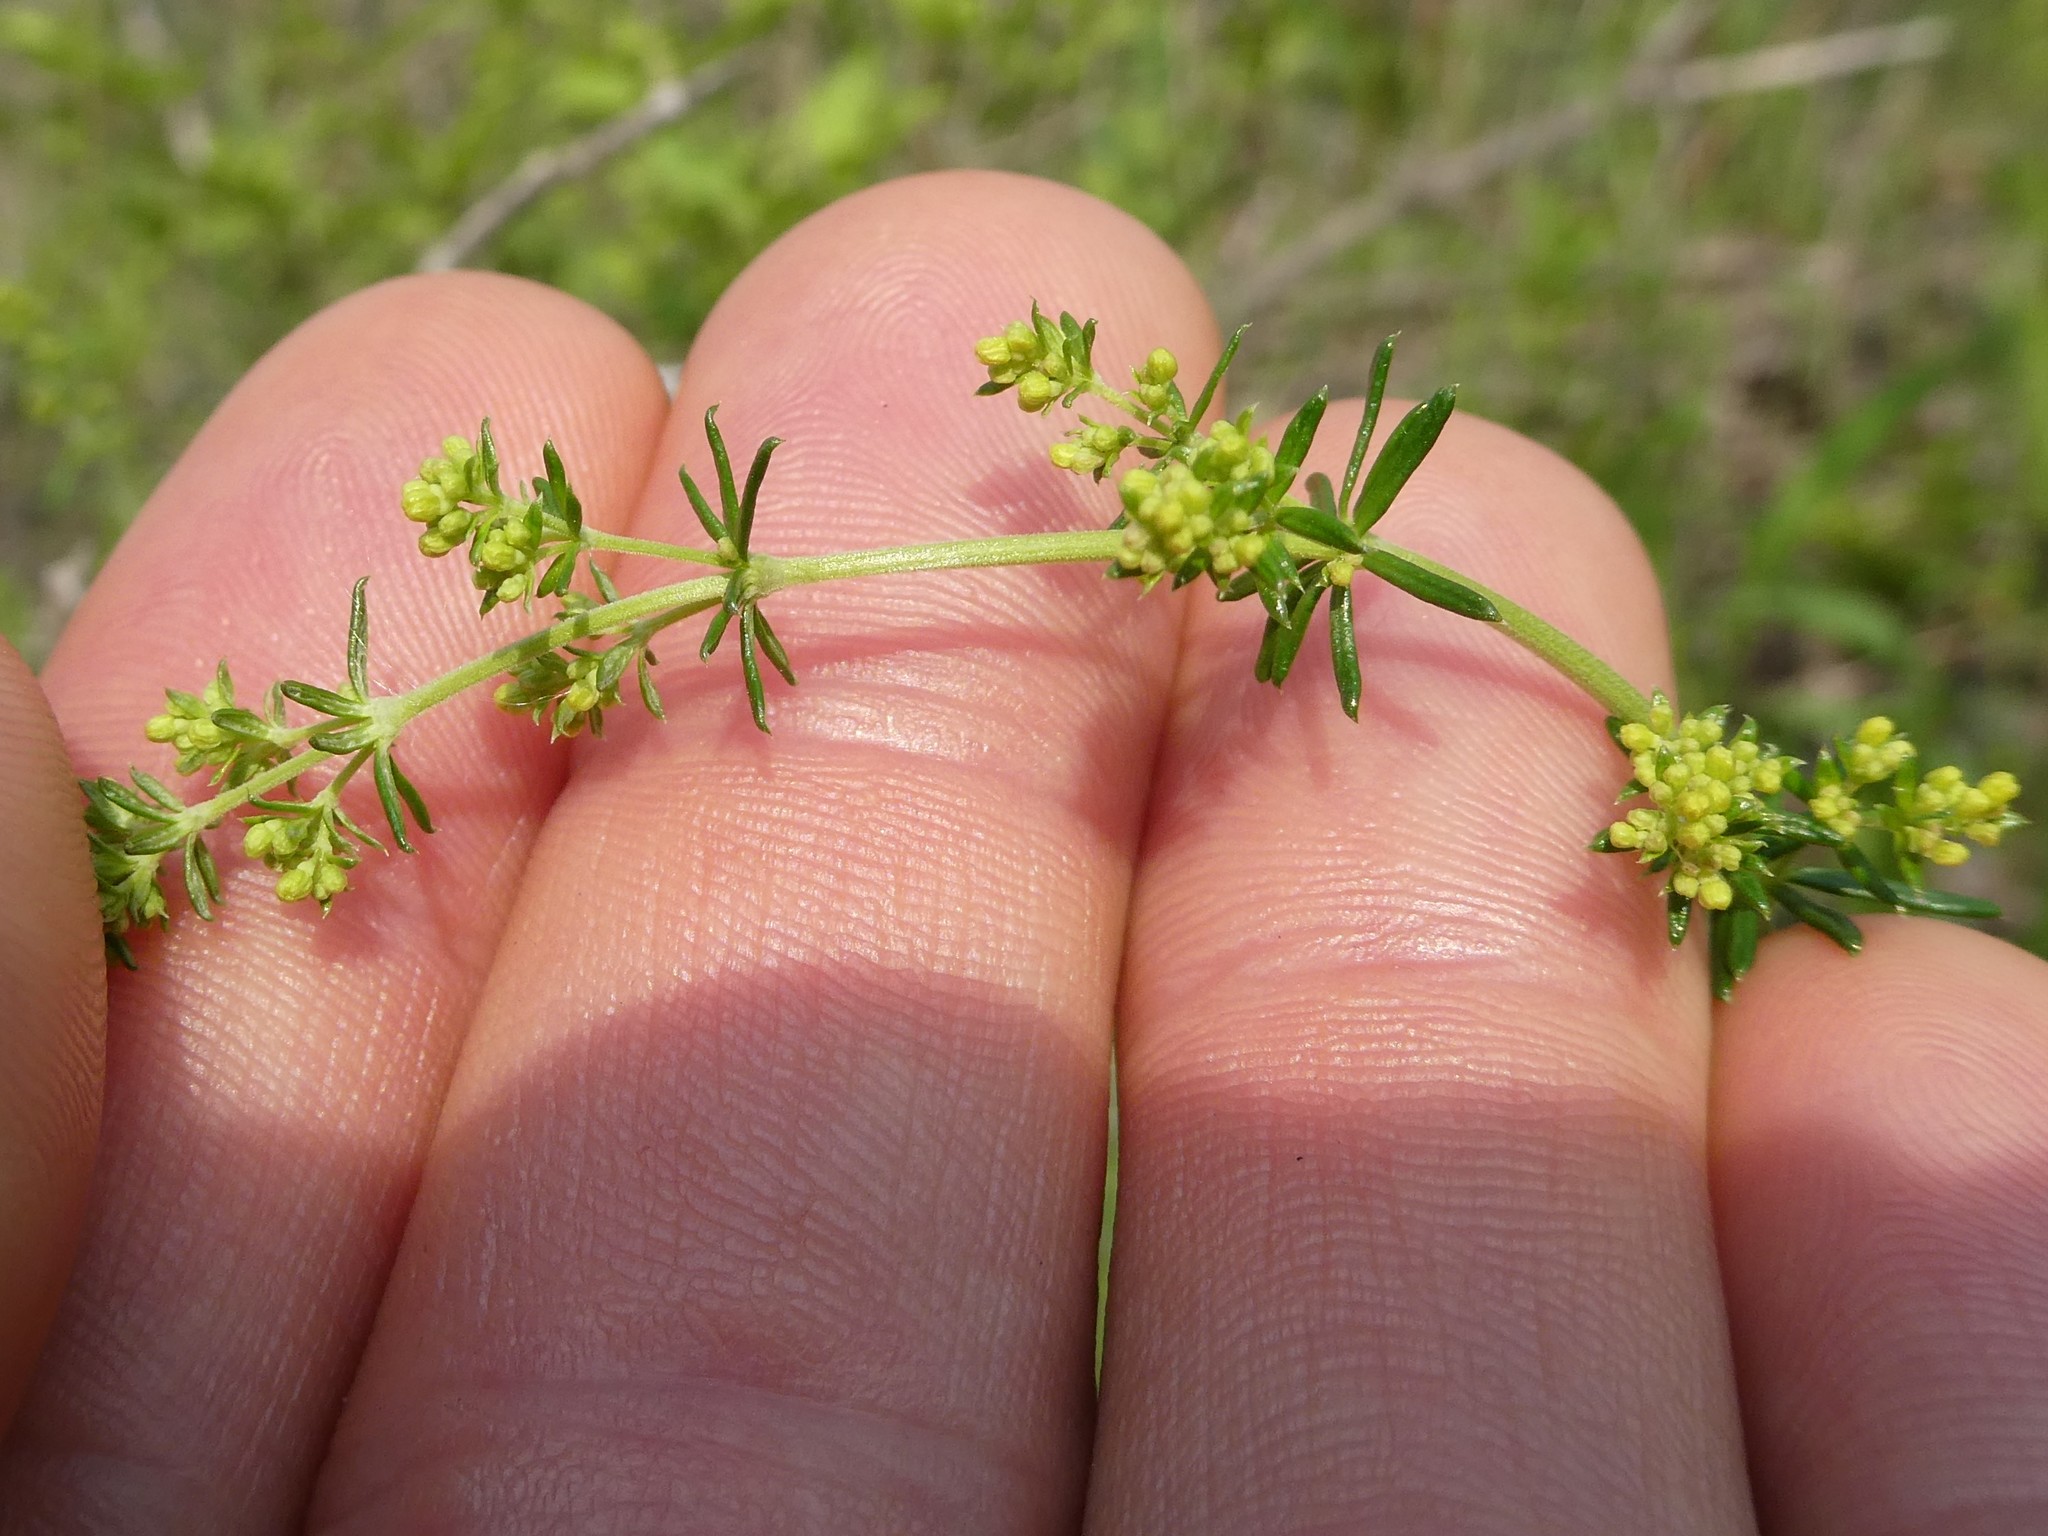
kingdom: Plantae
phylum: Tracheophyta
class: Magnoliopsida
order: Gentianales
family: Rubiaceae
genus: Galium
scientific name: Galium verum
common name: Lady's bedstraw
